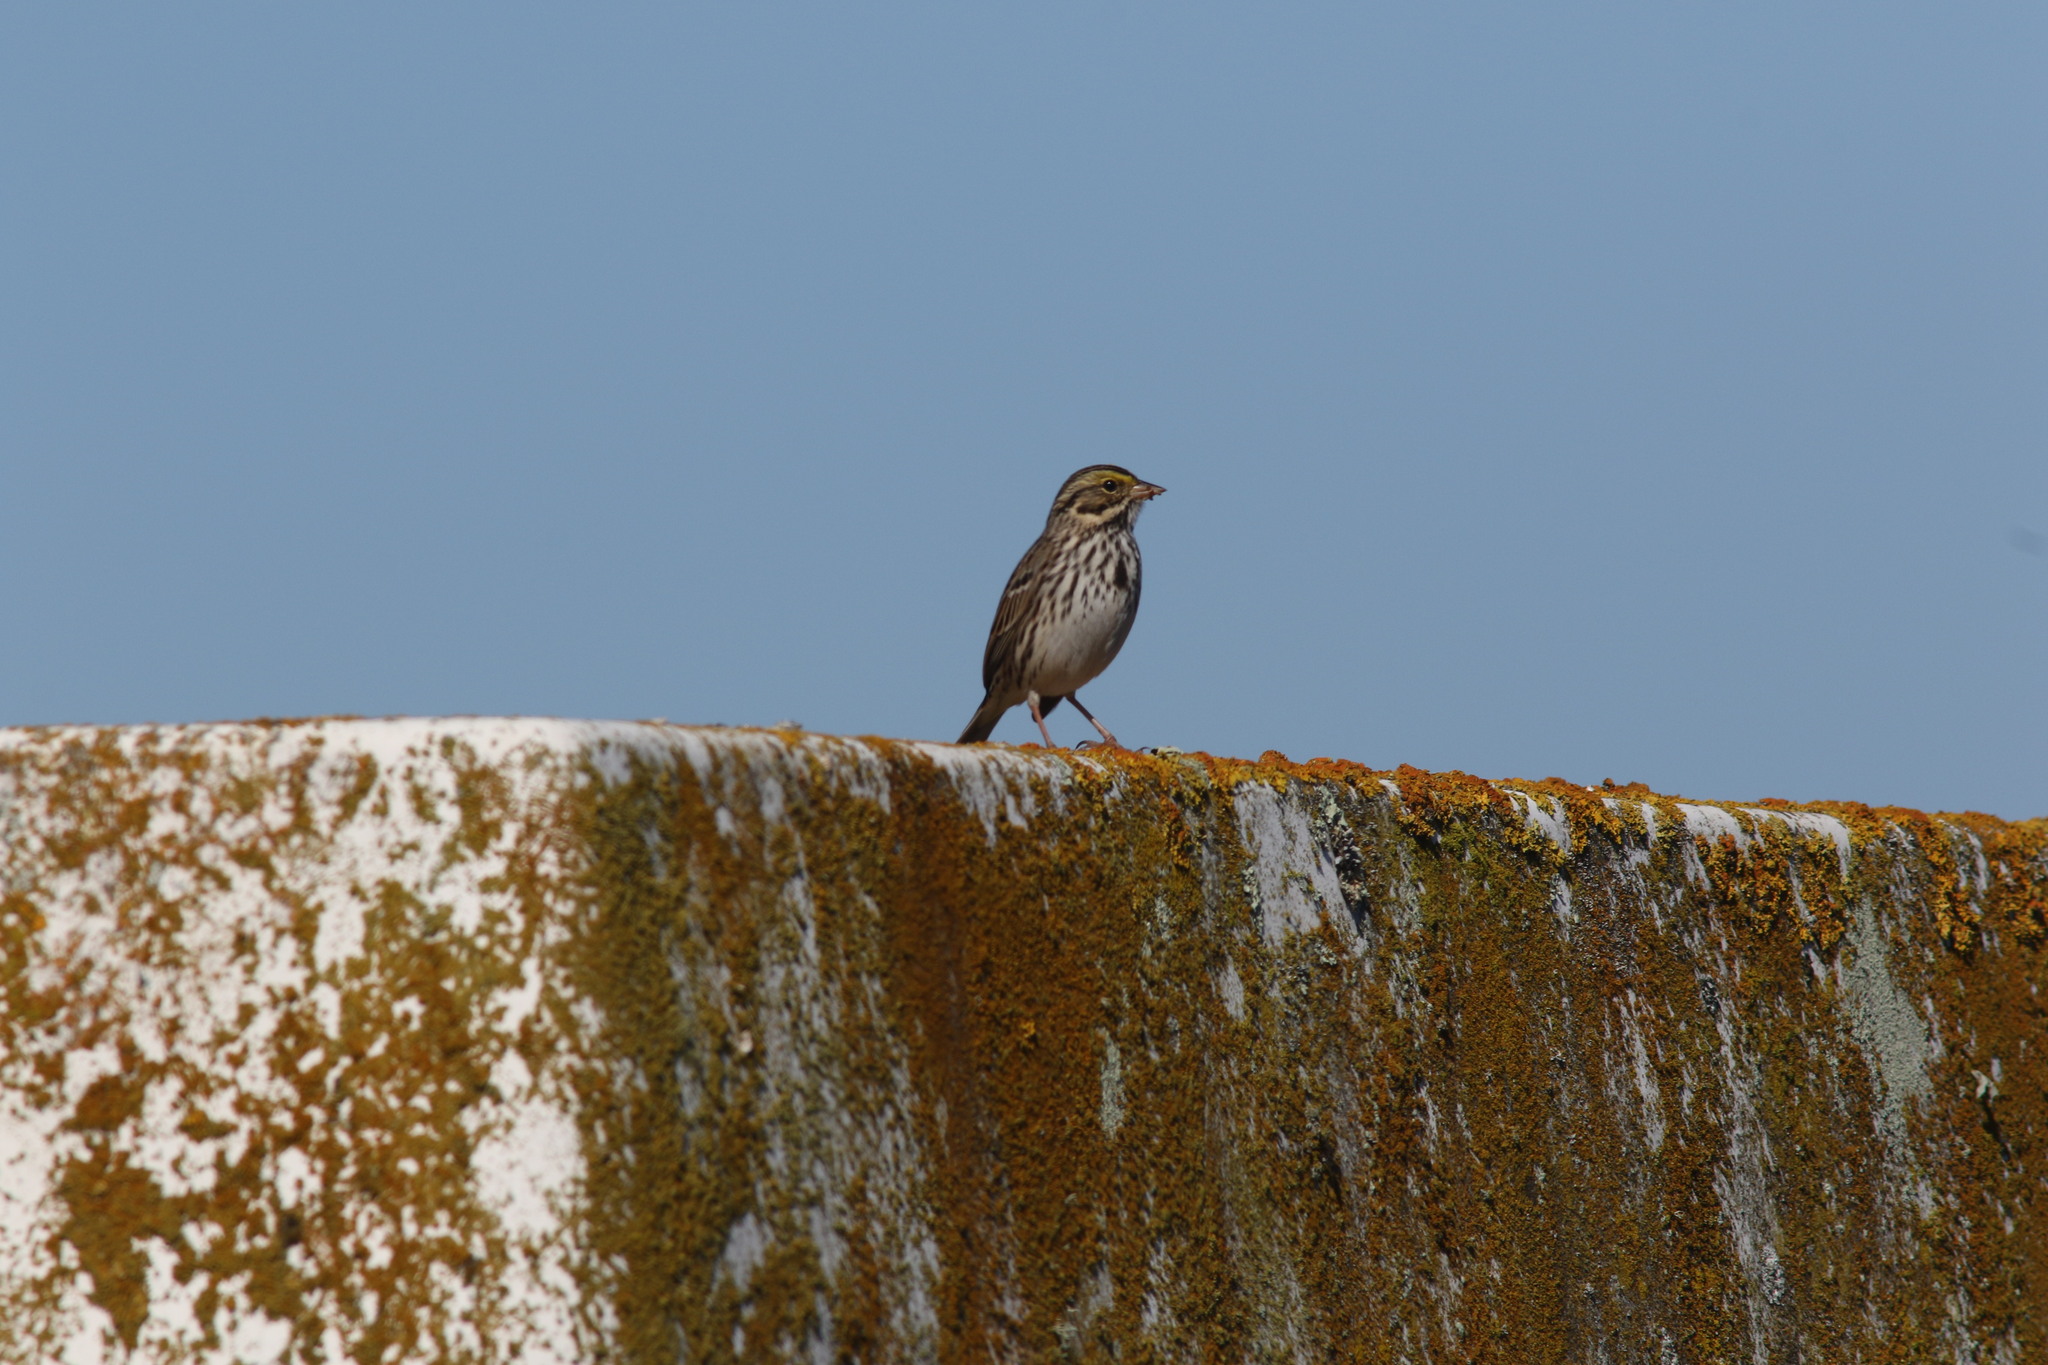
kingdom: Animalia
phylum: Chordata
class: Aves
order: Passeriformes
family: Passerellidae
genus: Passerculus
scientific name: Passerculus sandwichensis
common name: Savannah sparrow
